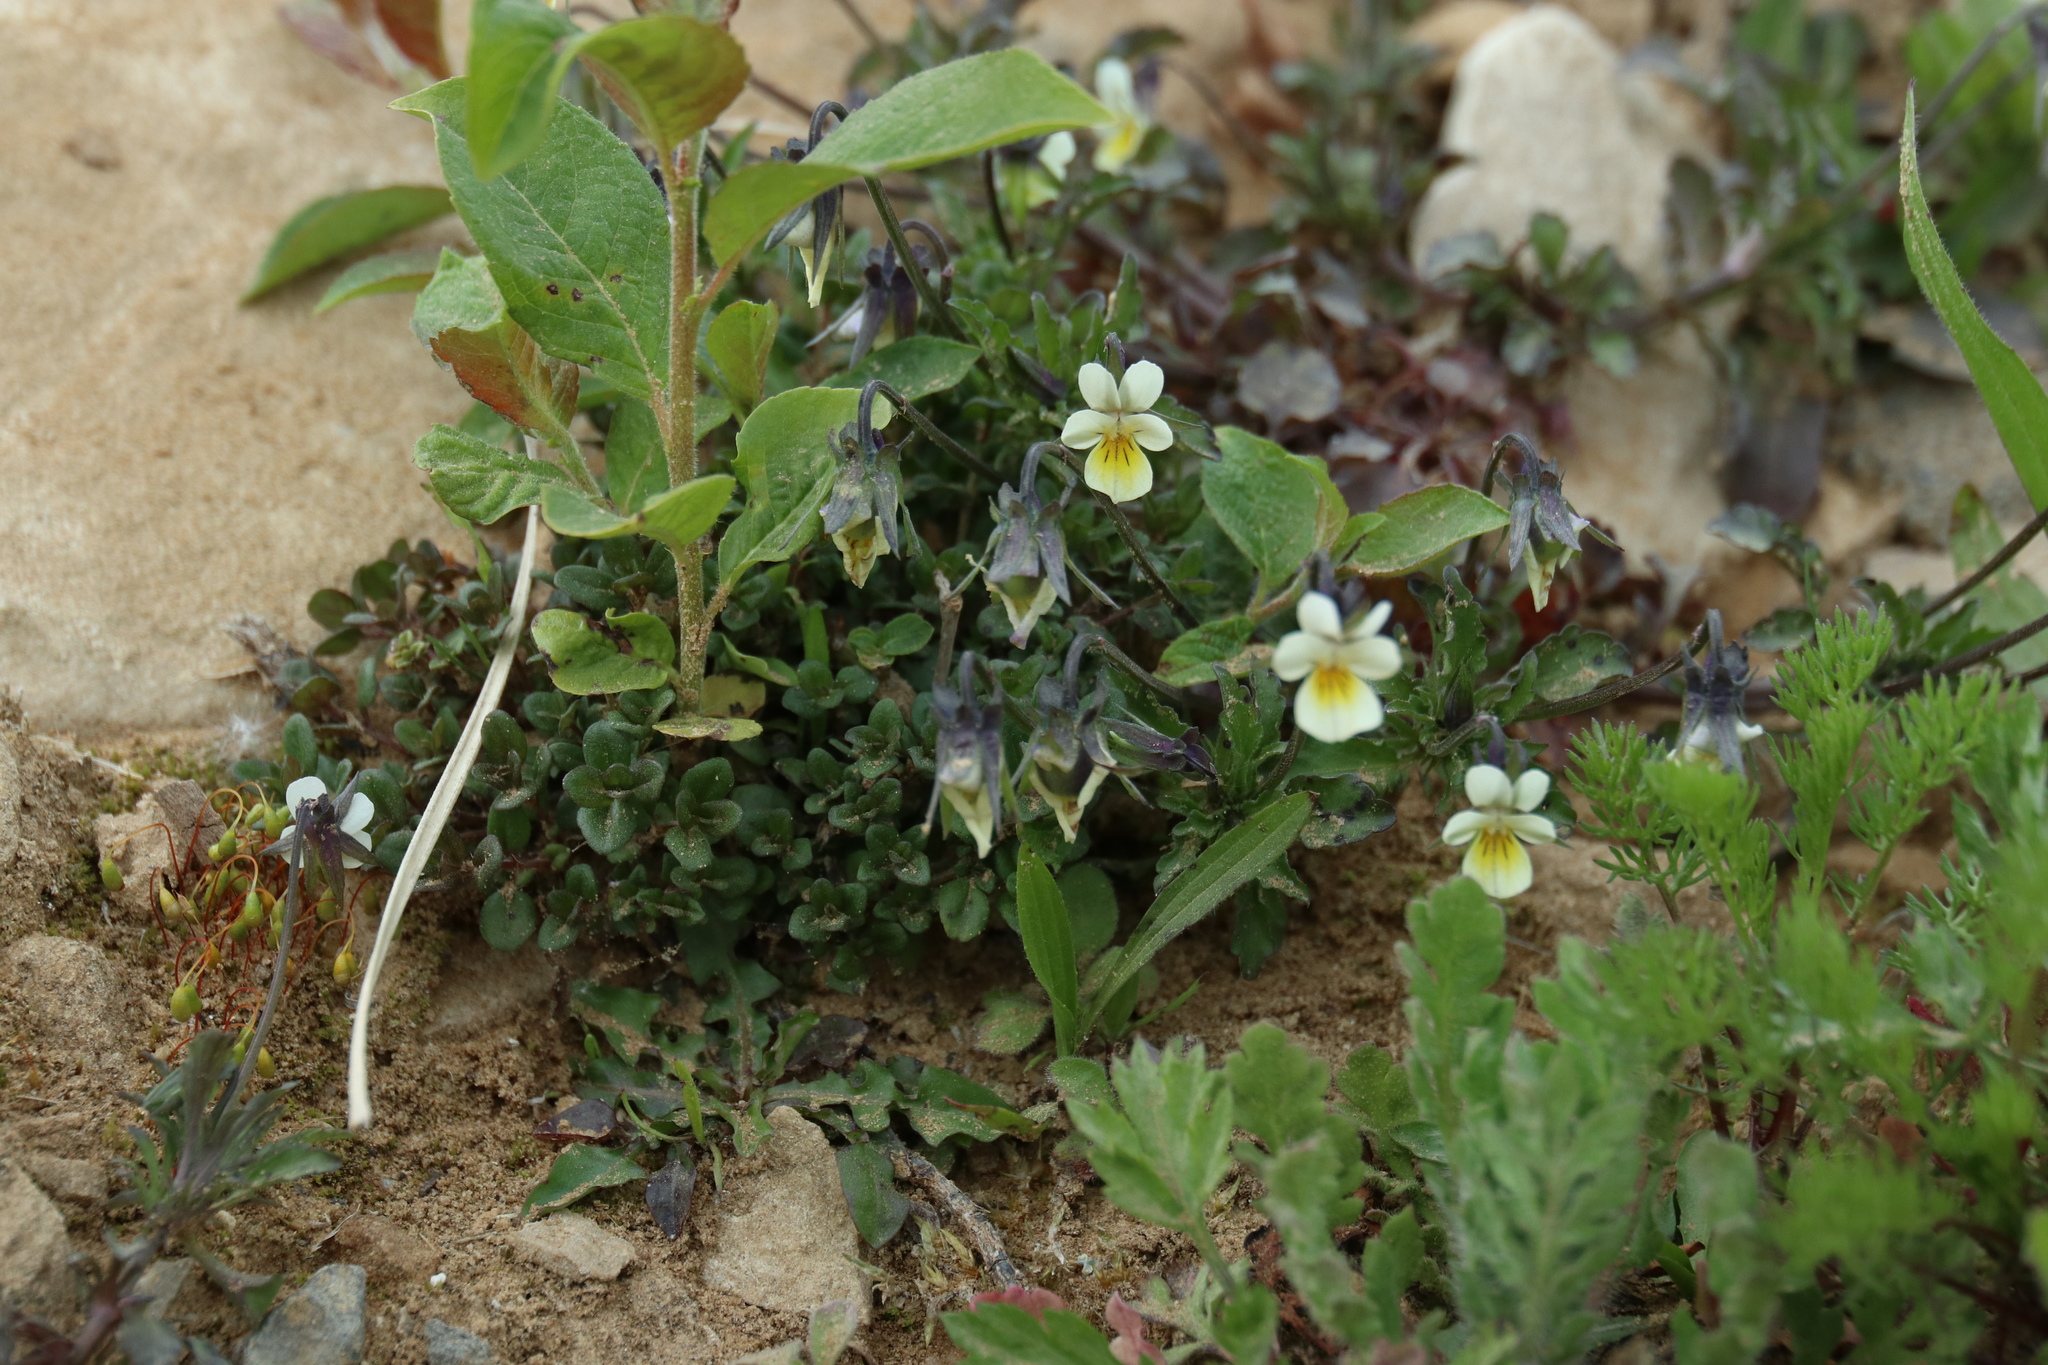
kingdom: Plantae
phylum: Tracheophyta
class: Magnoliopsida
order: Malpighiales
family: Violaceae
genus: Viola
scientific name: Viola arvensis
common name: Field pansy
